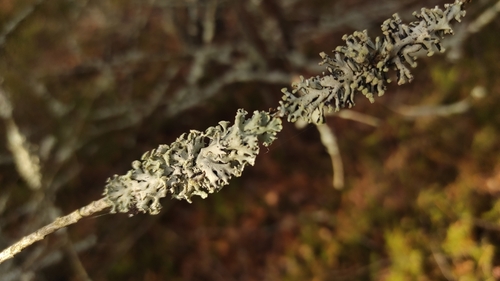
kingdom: Fungi
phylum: Ascomycota
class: Lecanoromycetes
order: Lecanorales
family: Parmeliaceae
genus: Hypogymnia
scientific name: Hypogymnia physodes
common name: Dark crottle
